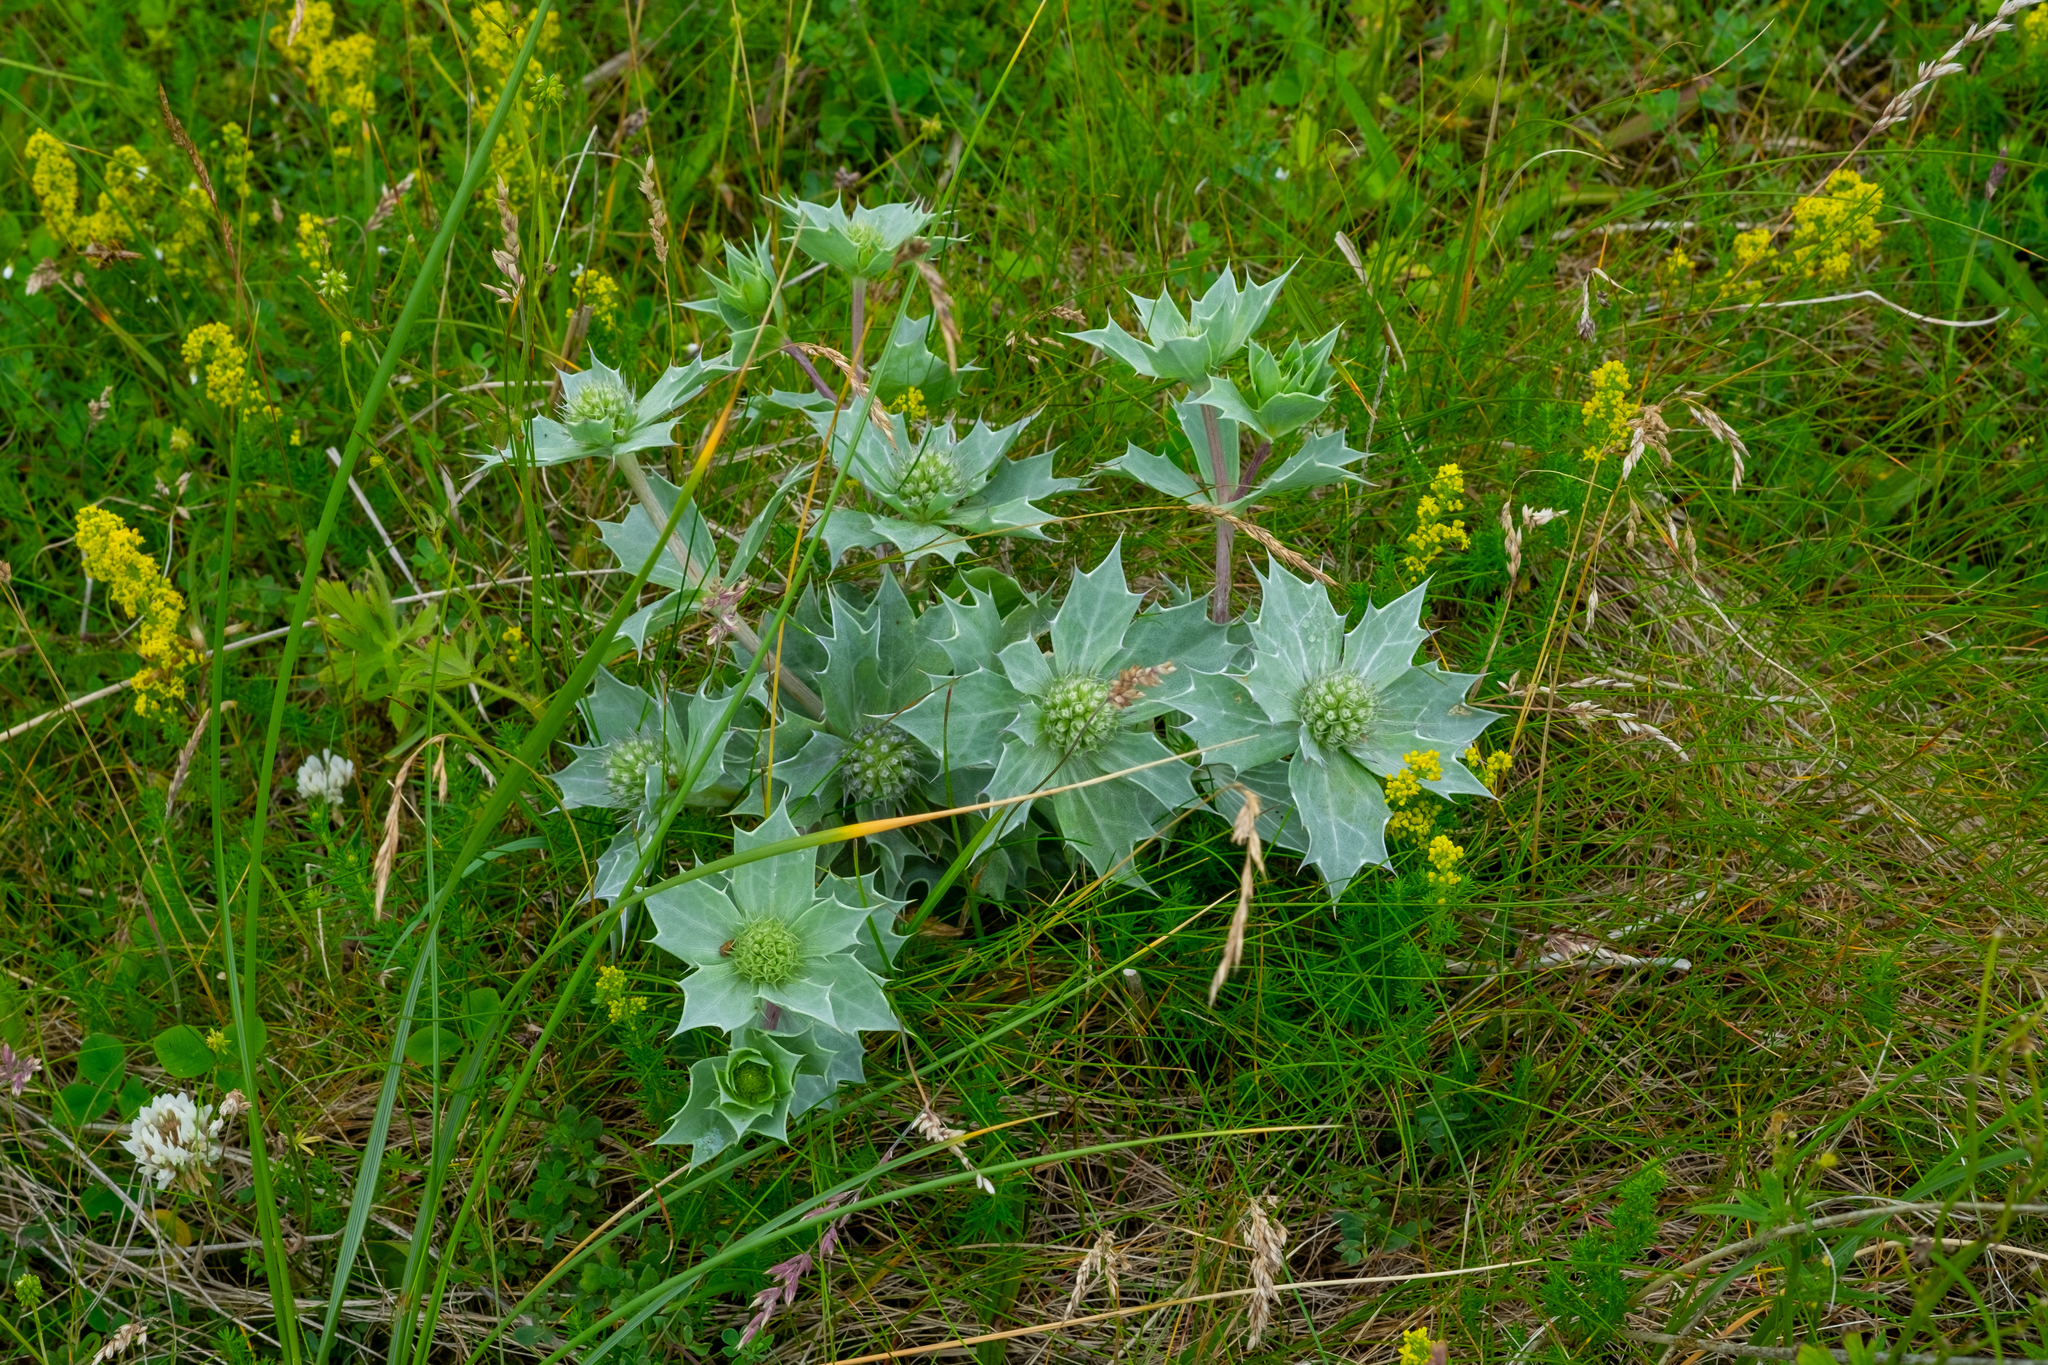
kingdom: Plantae
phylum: Tracheophyta
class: Magnoliopsida
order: Apiales
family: Apiaceae
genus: Eryngium
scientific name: Eryngium maritimum
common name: Sea-holly
